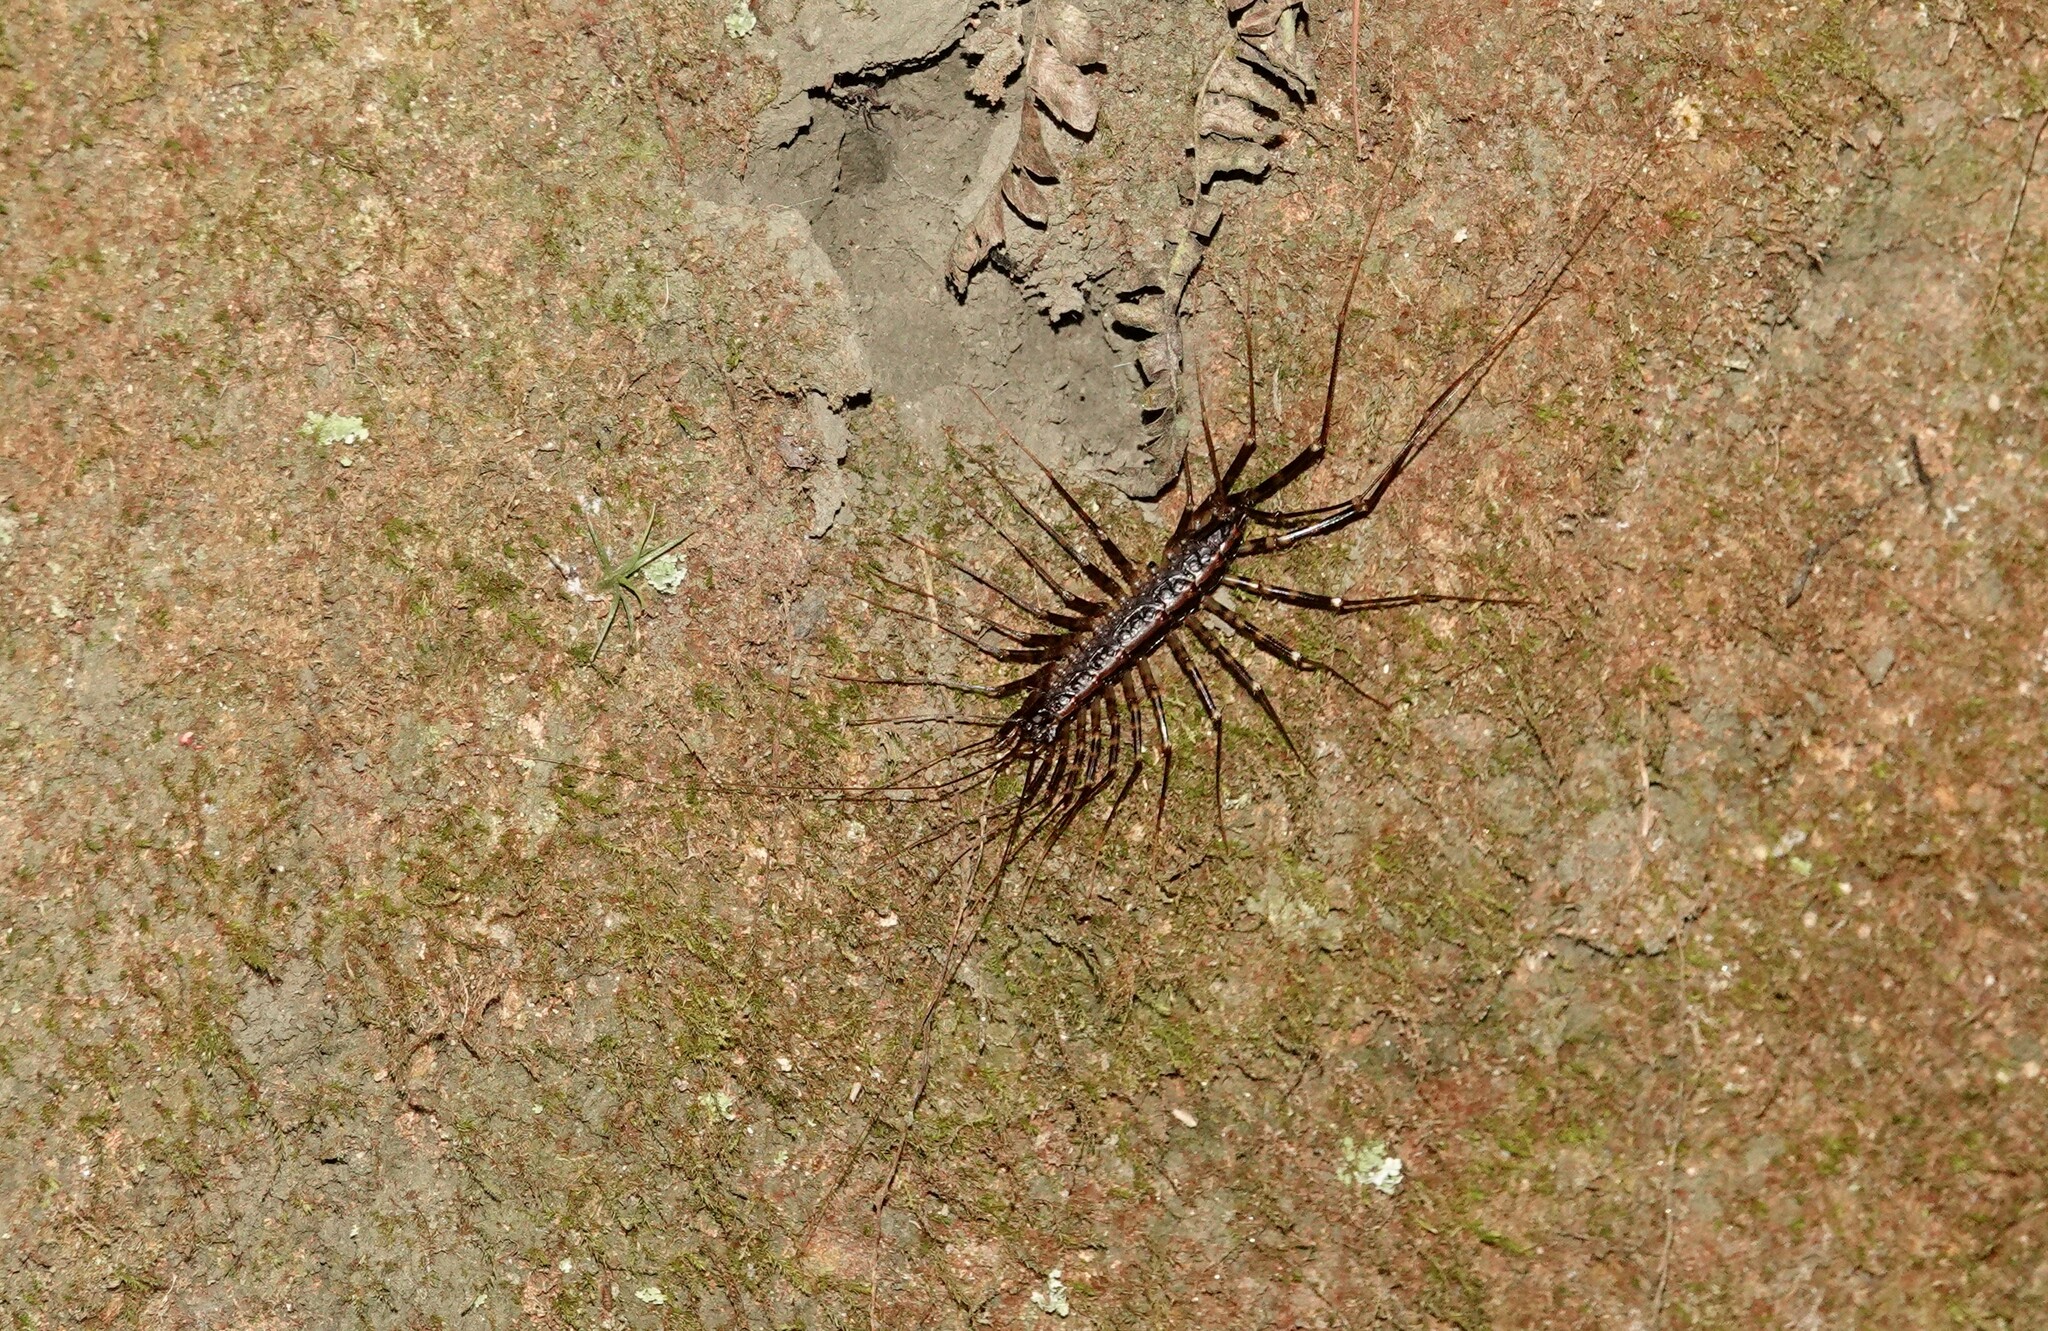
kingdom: Animalia
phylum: Arthropoda
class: Chilopoda
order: Scutigeromorpha
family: Pselliodidae
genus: Sphendononema
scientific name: Sphendononema guildingii
